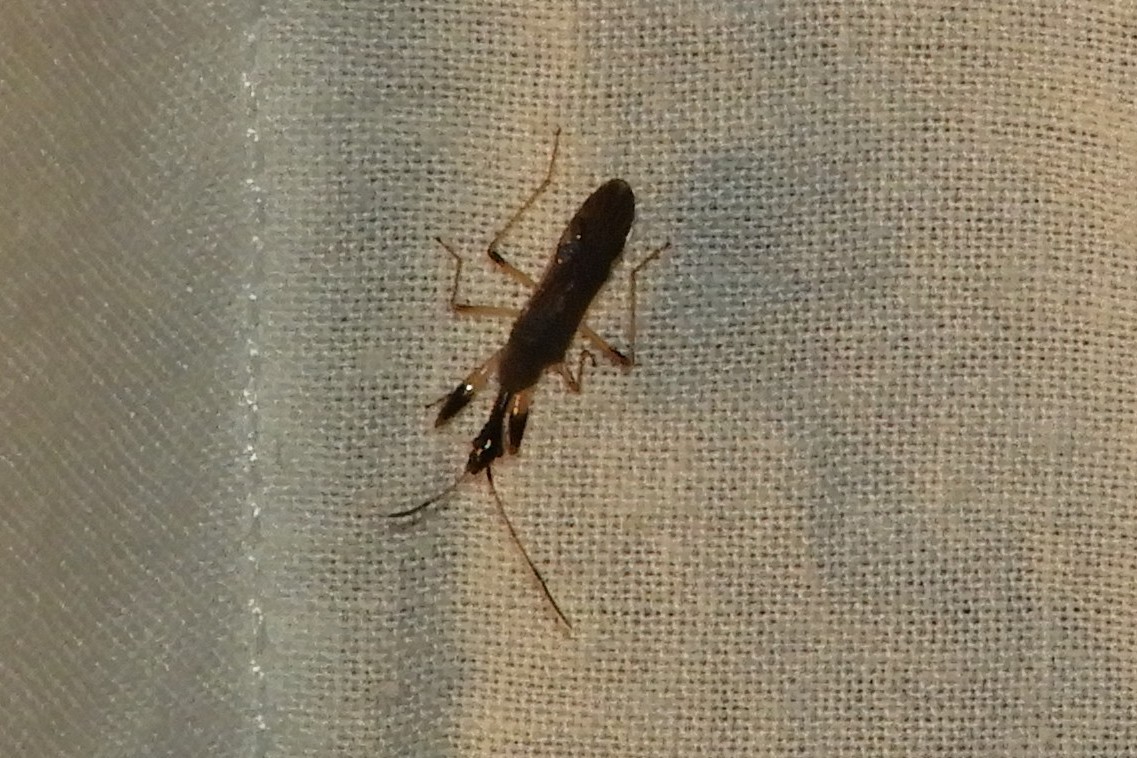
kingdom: Animalia
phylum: Arthropoda
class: Insecta
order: Hemiptera
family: Rhyparochromidae
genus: Myodocha
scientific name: Myodocha serripes
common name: Long-necked seed bug
